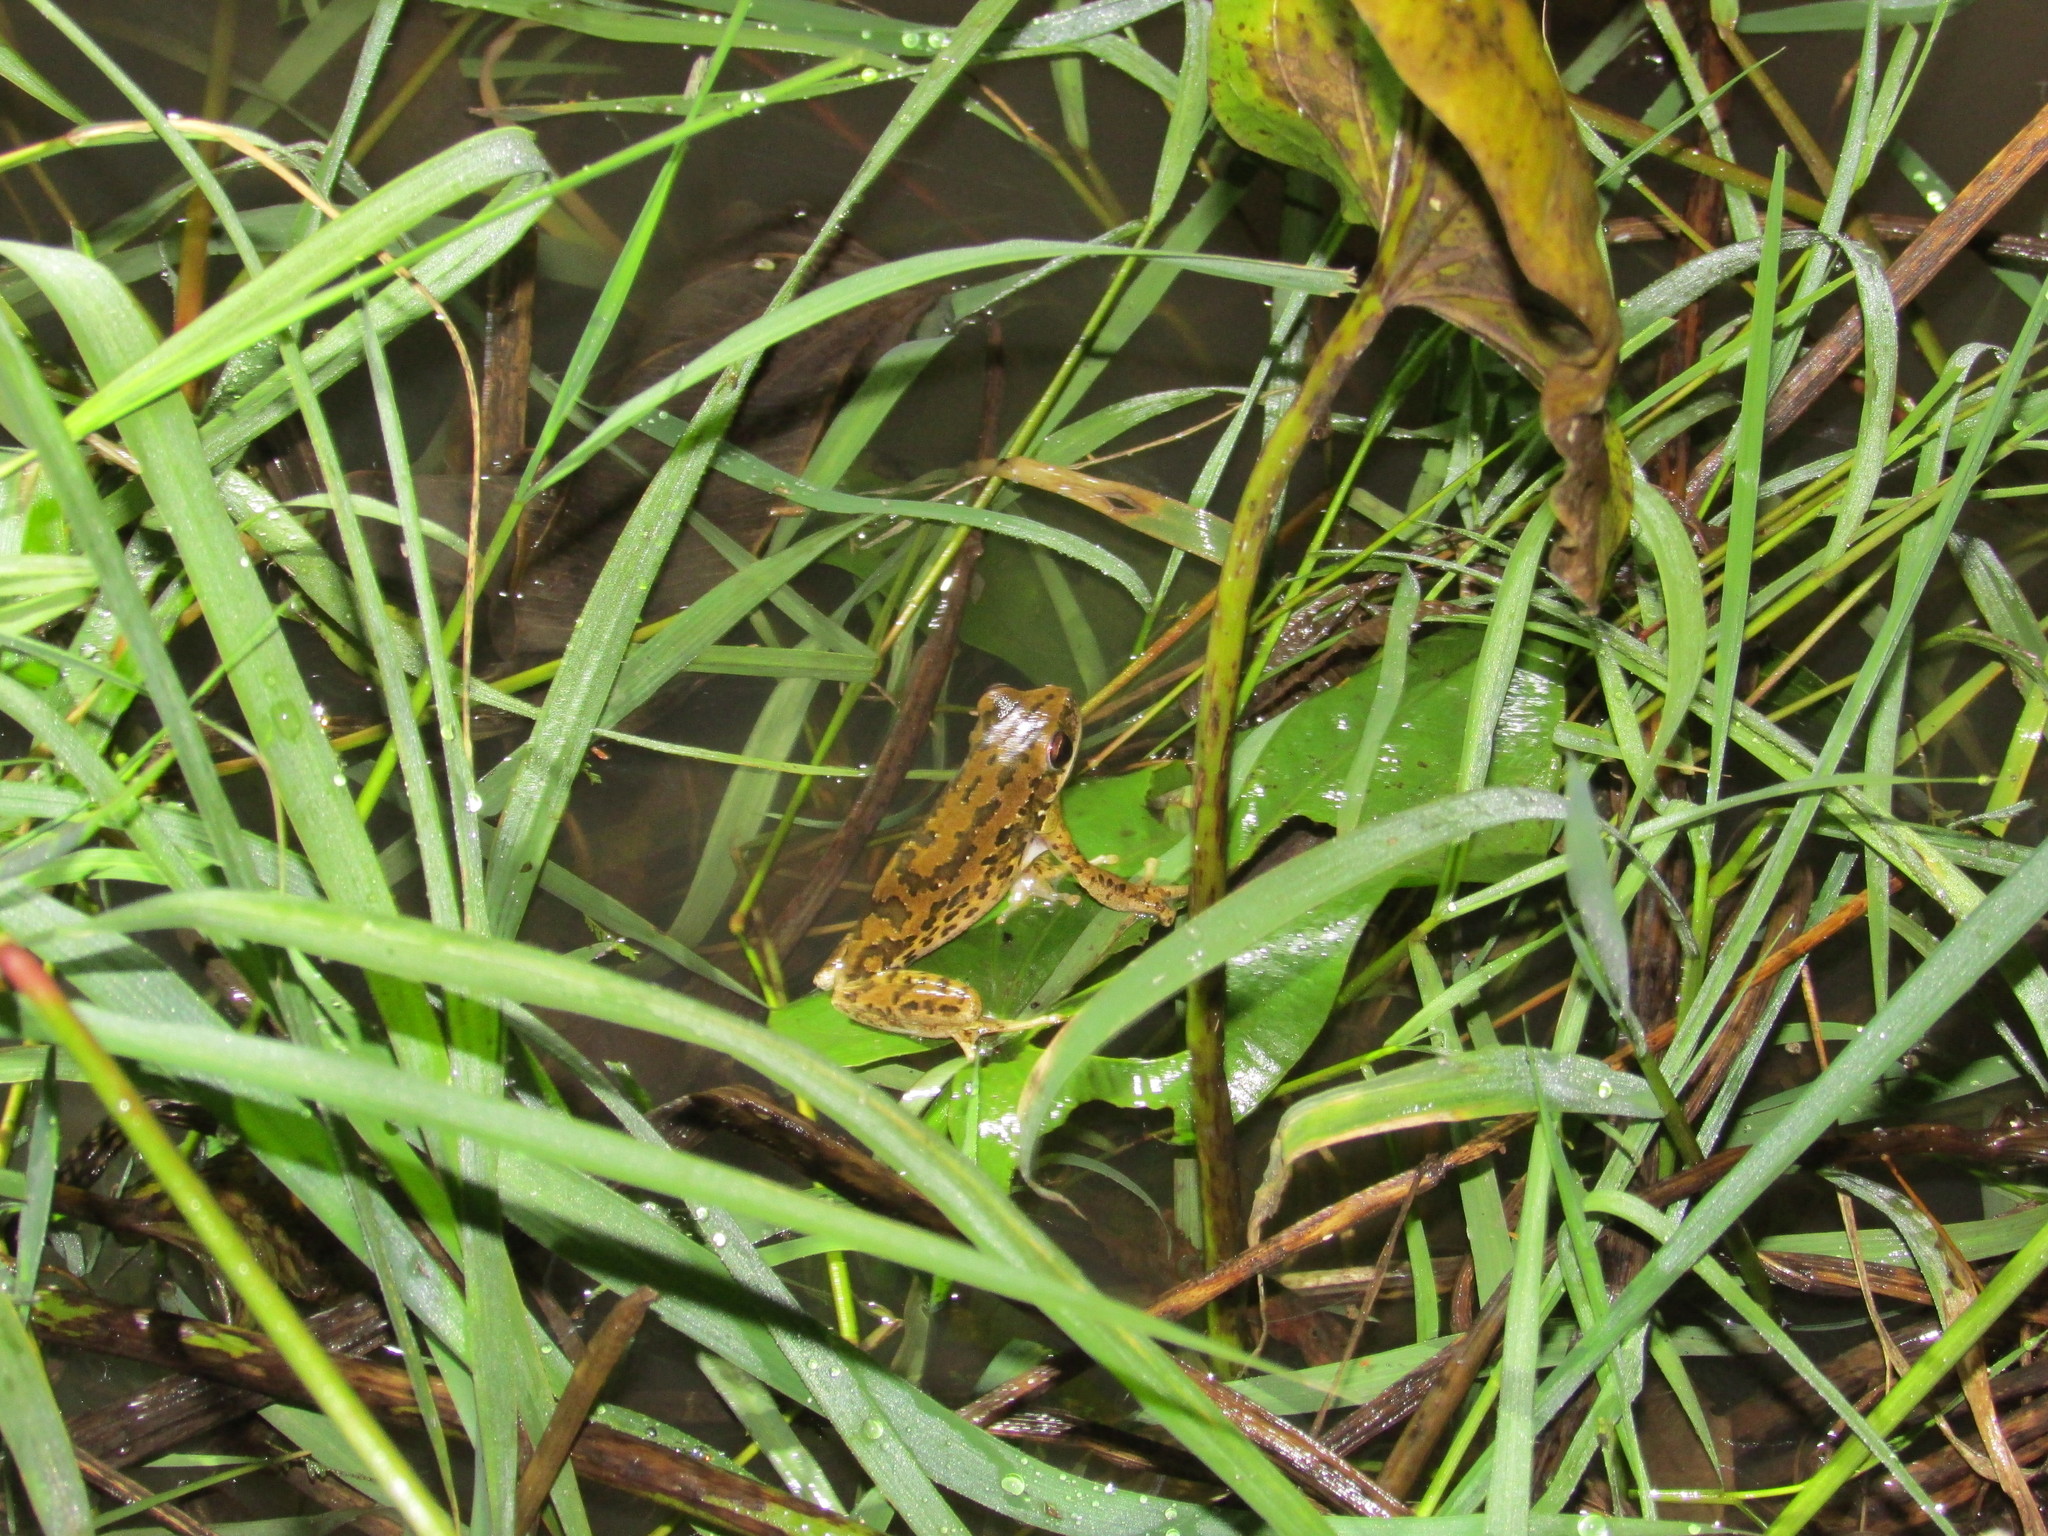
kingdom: Animalia
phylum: Chordata
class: Amphibia
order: Anura
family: Hylidae
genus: Boana
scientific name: Boana pulchella
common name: Montevideo treefrog
